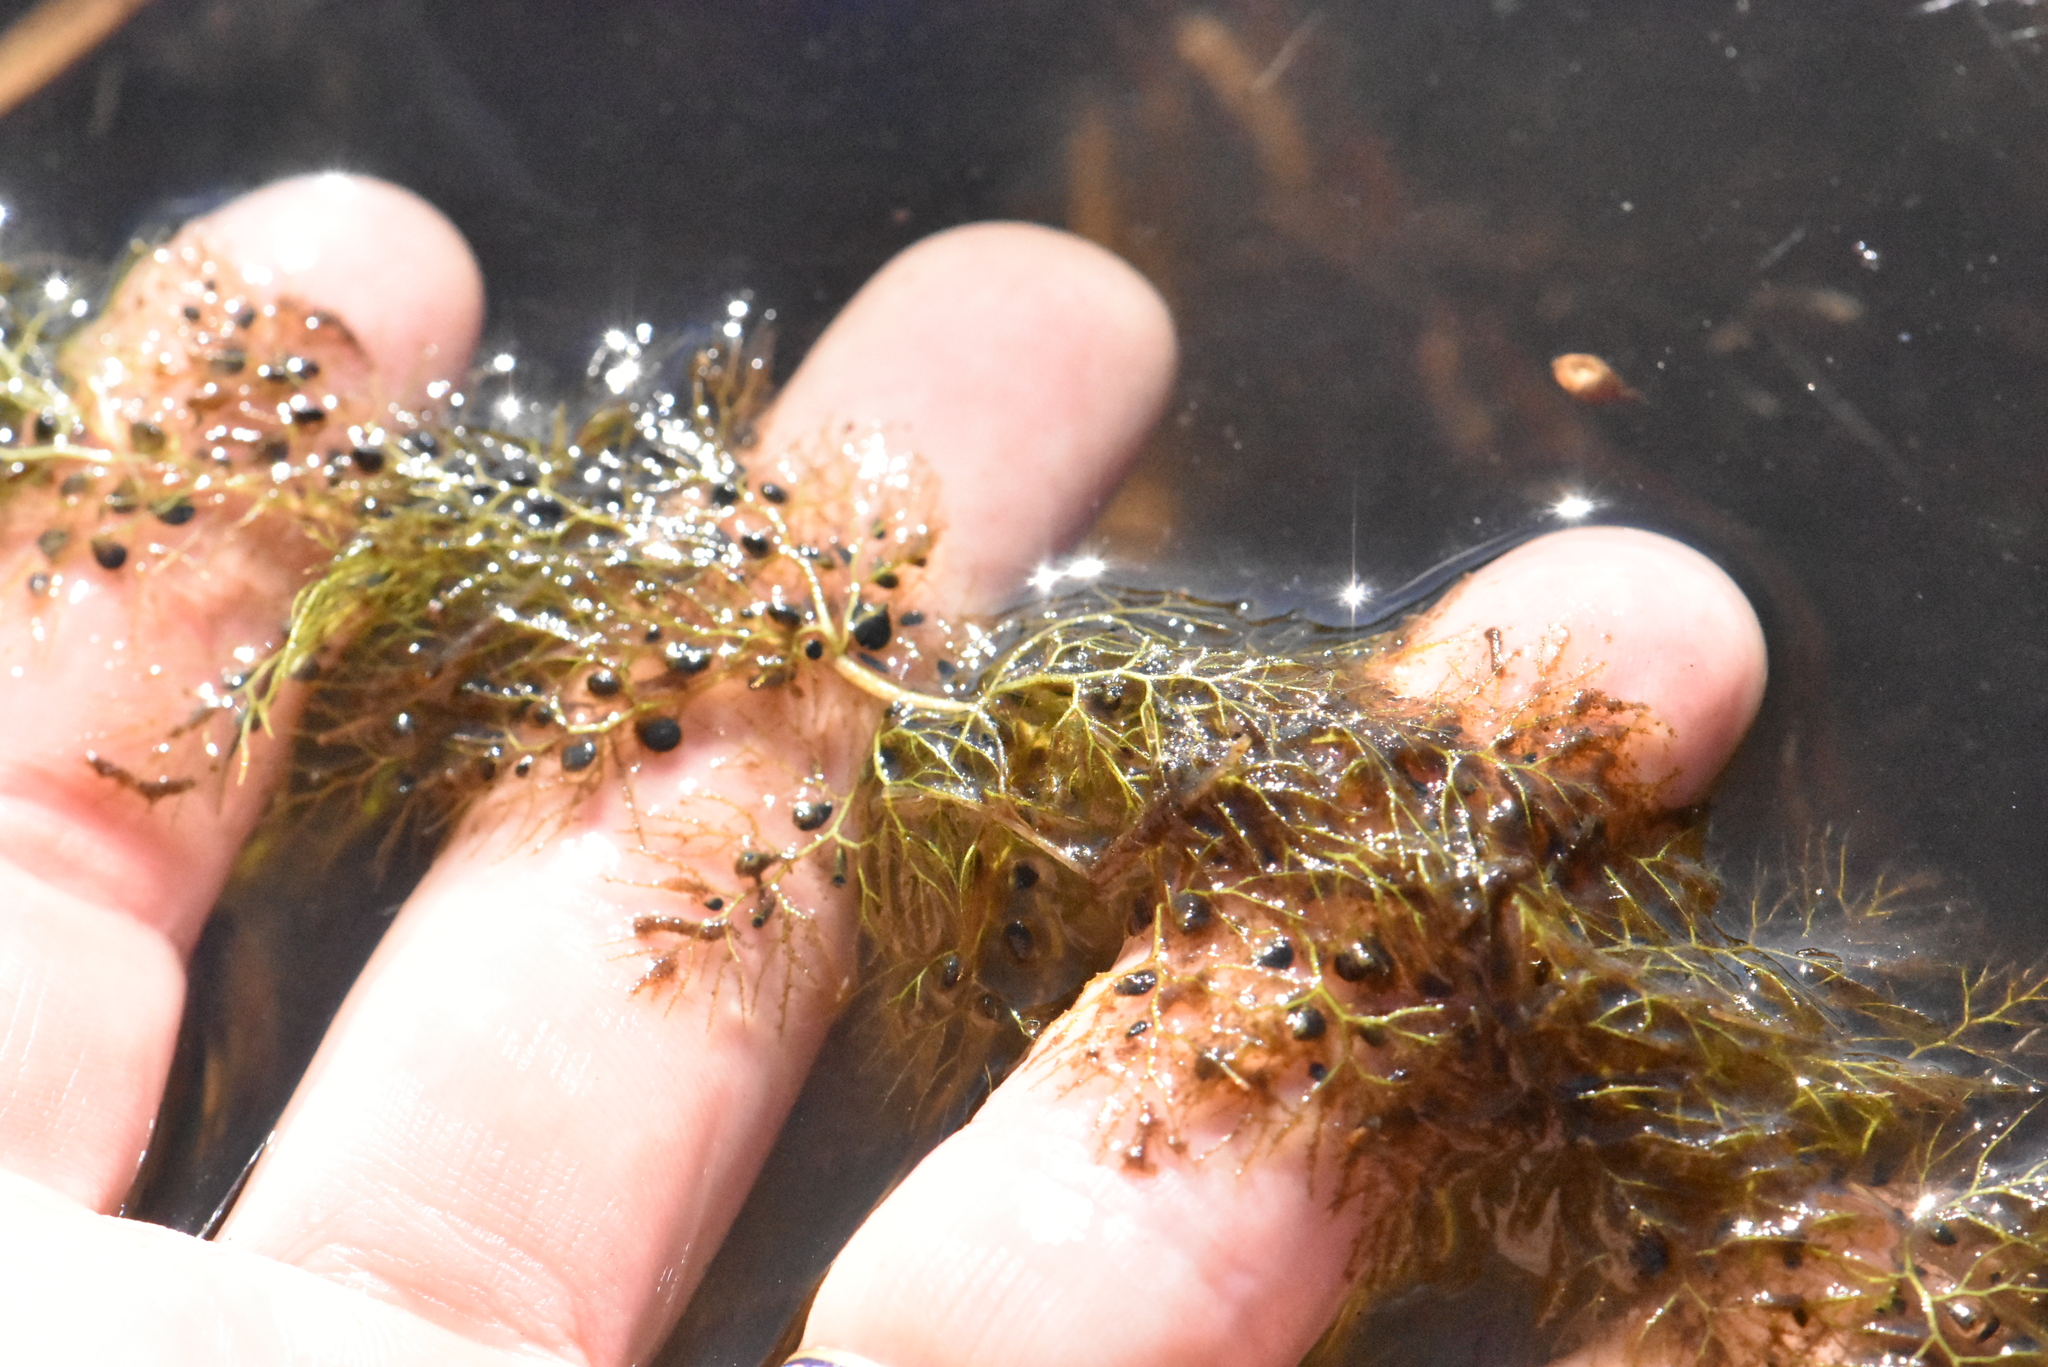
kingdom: Plantae
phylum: Tracheophyta
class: Magnoliopsida
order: Lamiales
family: Lentibulariaceae
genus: Utricularia
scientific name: Utricularia australis
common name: Bladderwort
